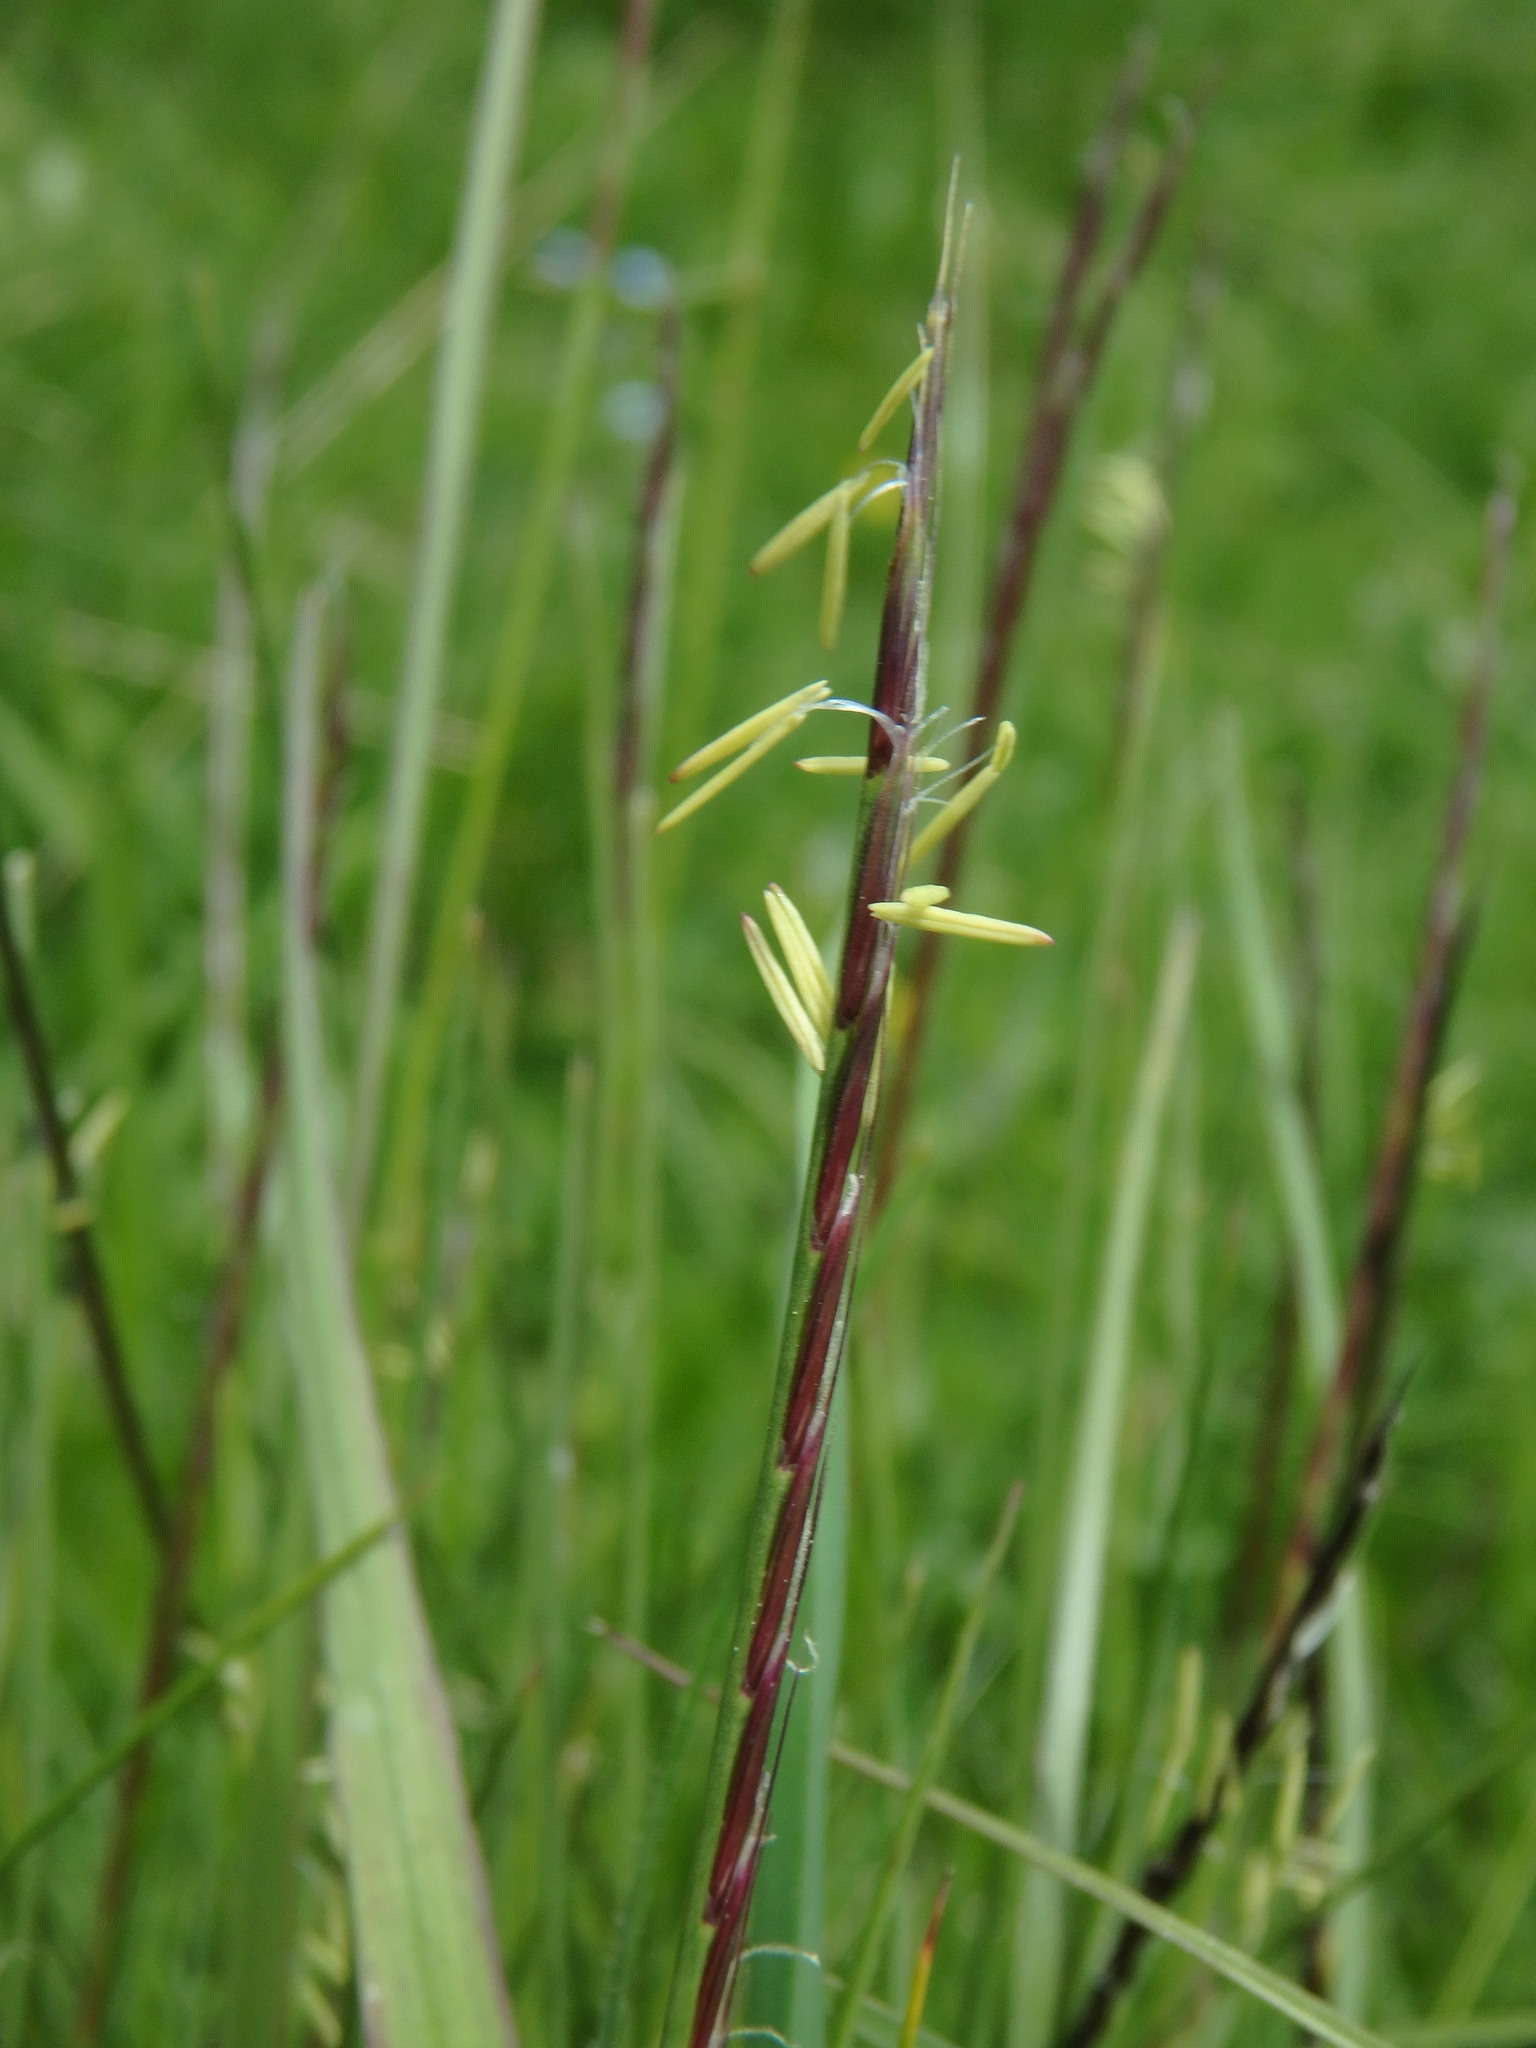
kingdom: Plantae
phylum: Tracheophyta
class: Liliopsida
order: Poales
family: Poaceae
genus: Nardus
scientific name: Nardus stricta
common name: Mat-grass
